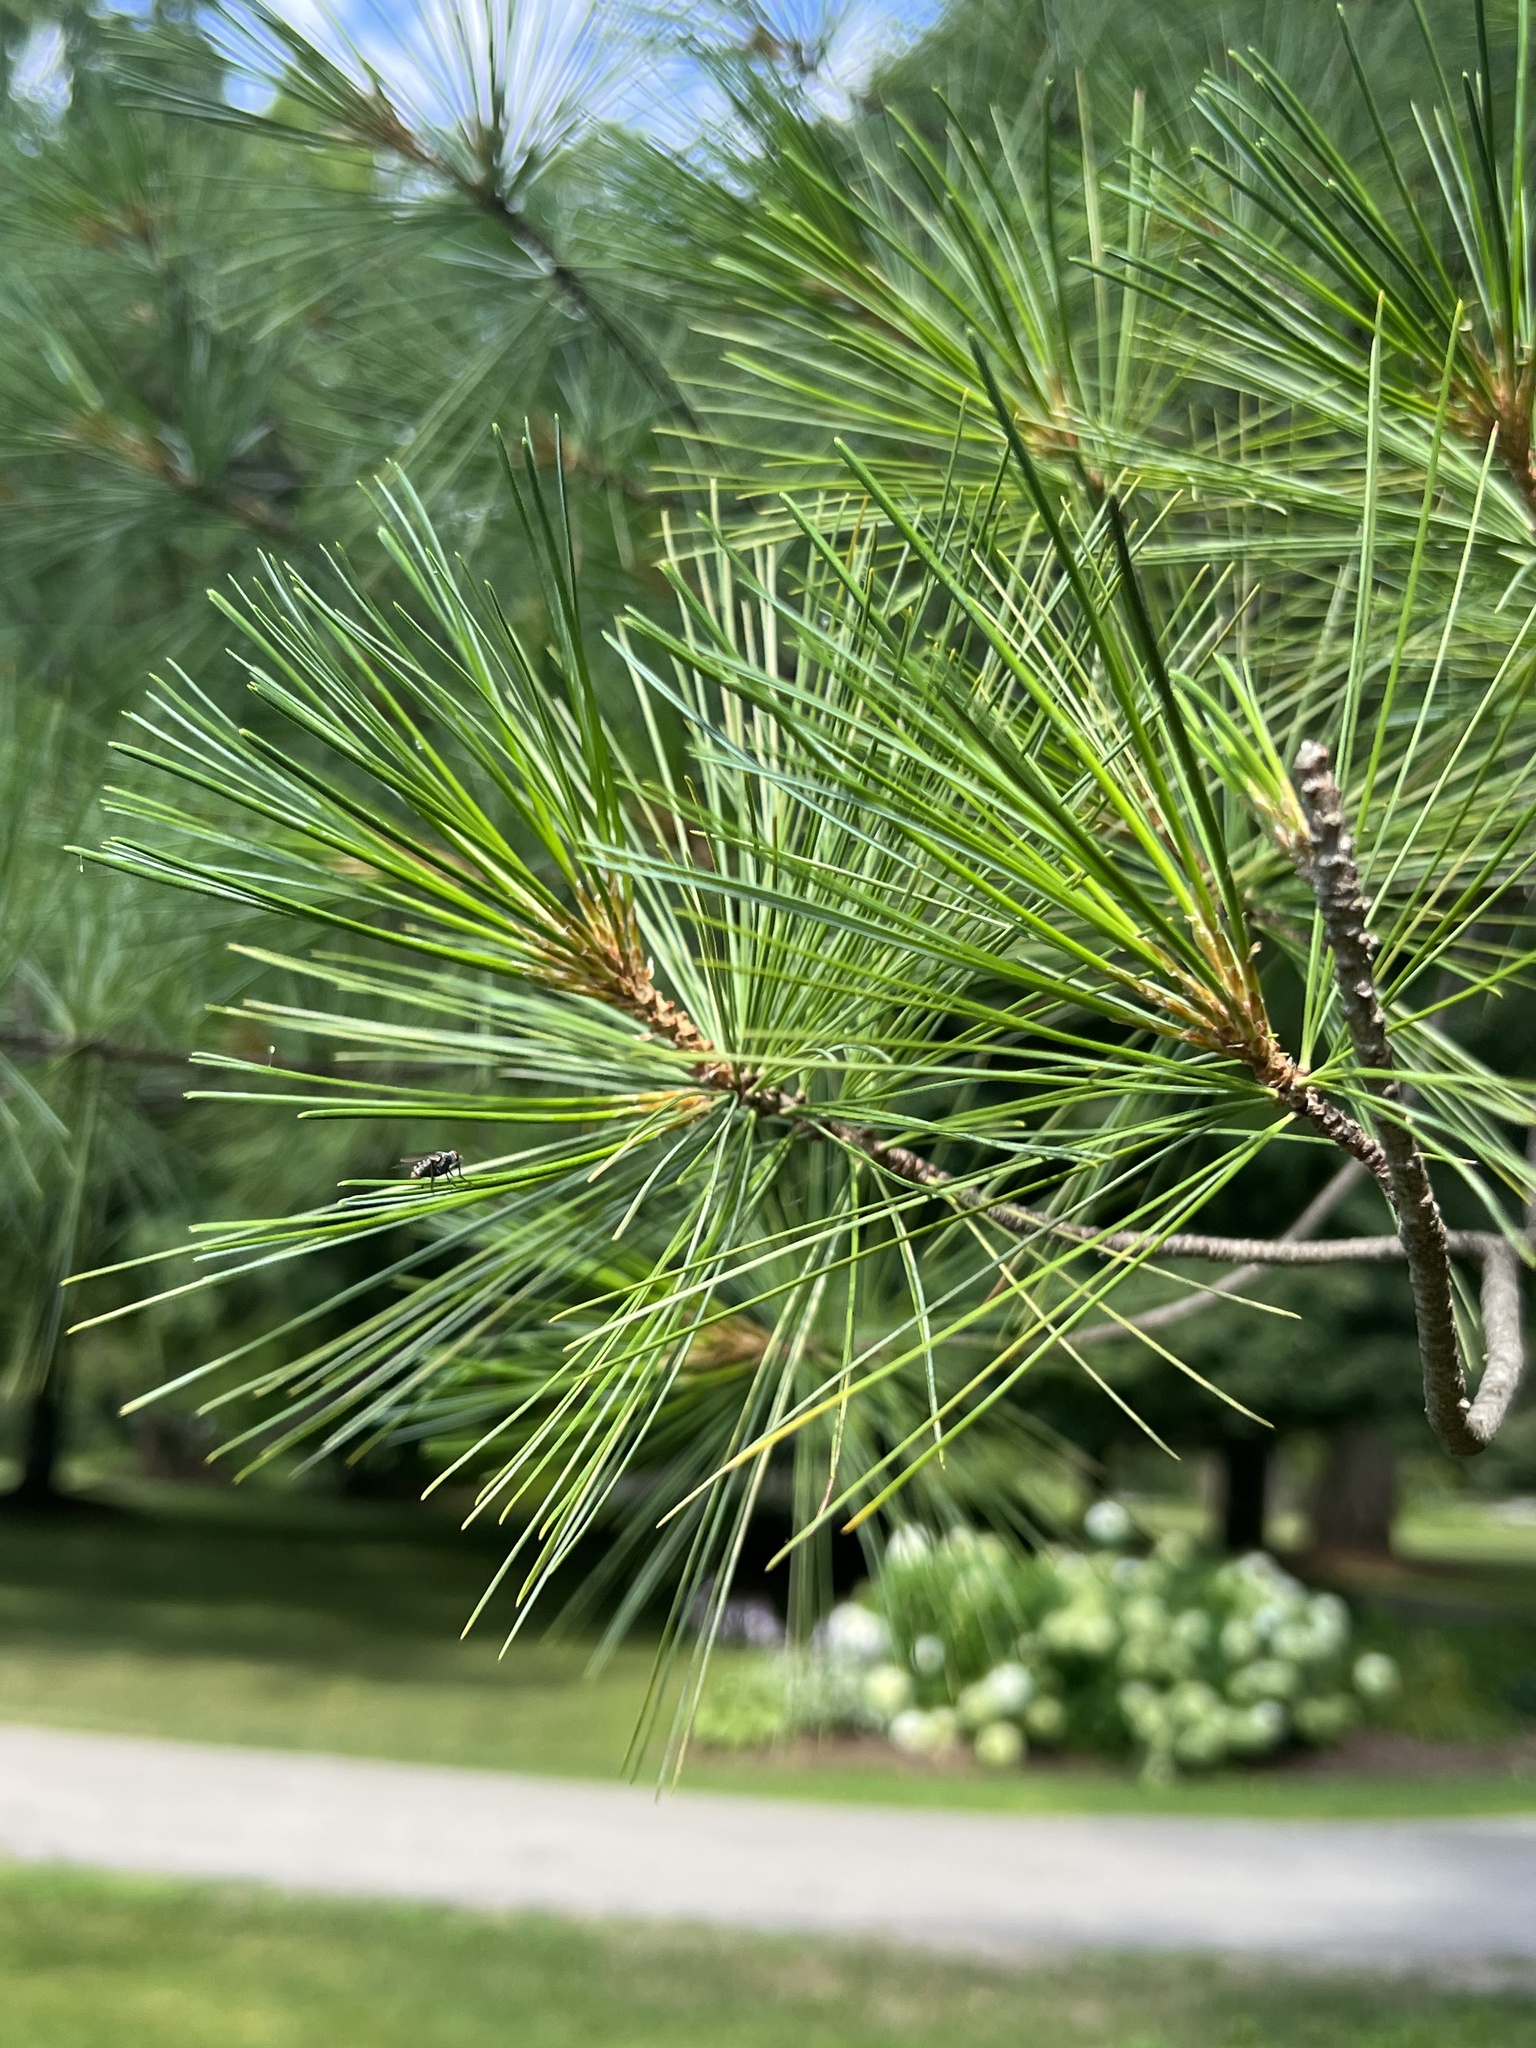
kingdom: Plantae
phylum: Tracheophyta
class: Pinopsida
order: Pinales
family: Pinaceae
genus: Pinus
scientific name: Pinus strobus
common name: Weymouth pine
